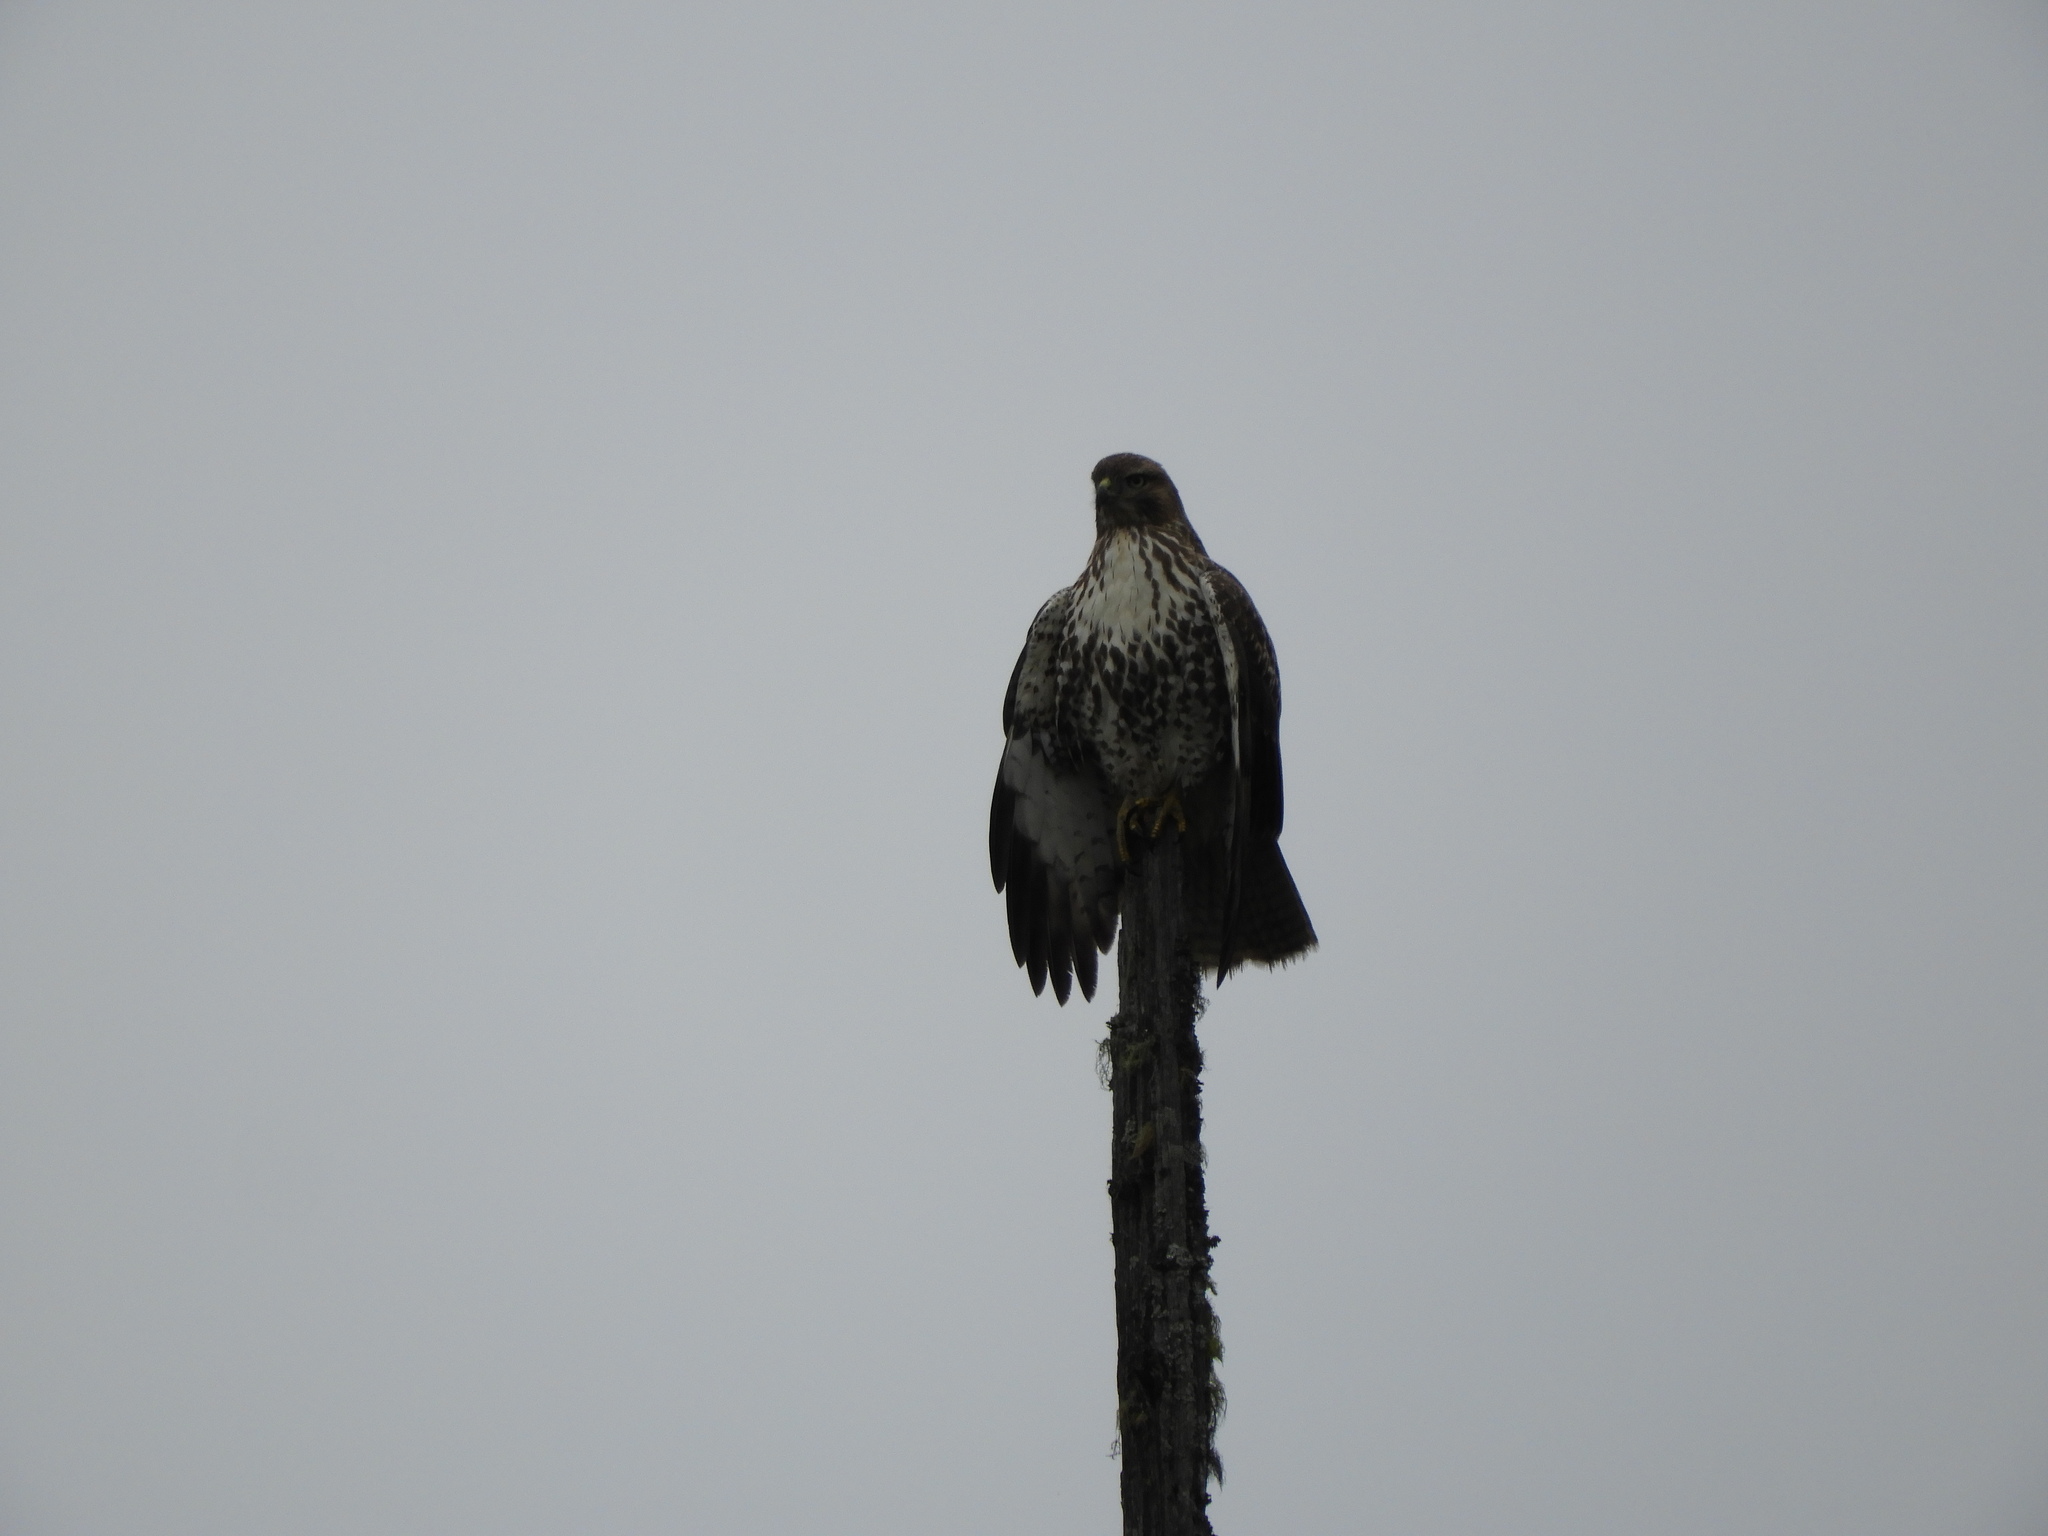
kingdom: Animalia
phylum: Chordata
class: Aves
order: Accipitriformes
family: Accipitridae
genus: Buteo
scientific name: Buteo jamaicensis
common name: Red-tailed hawk
